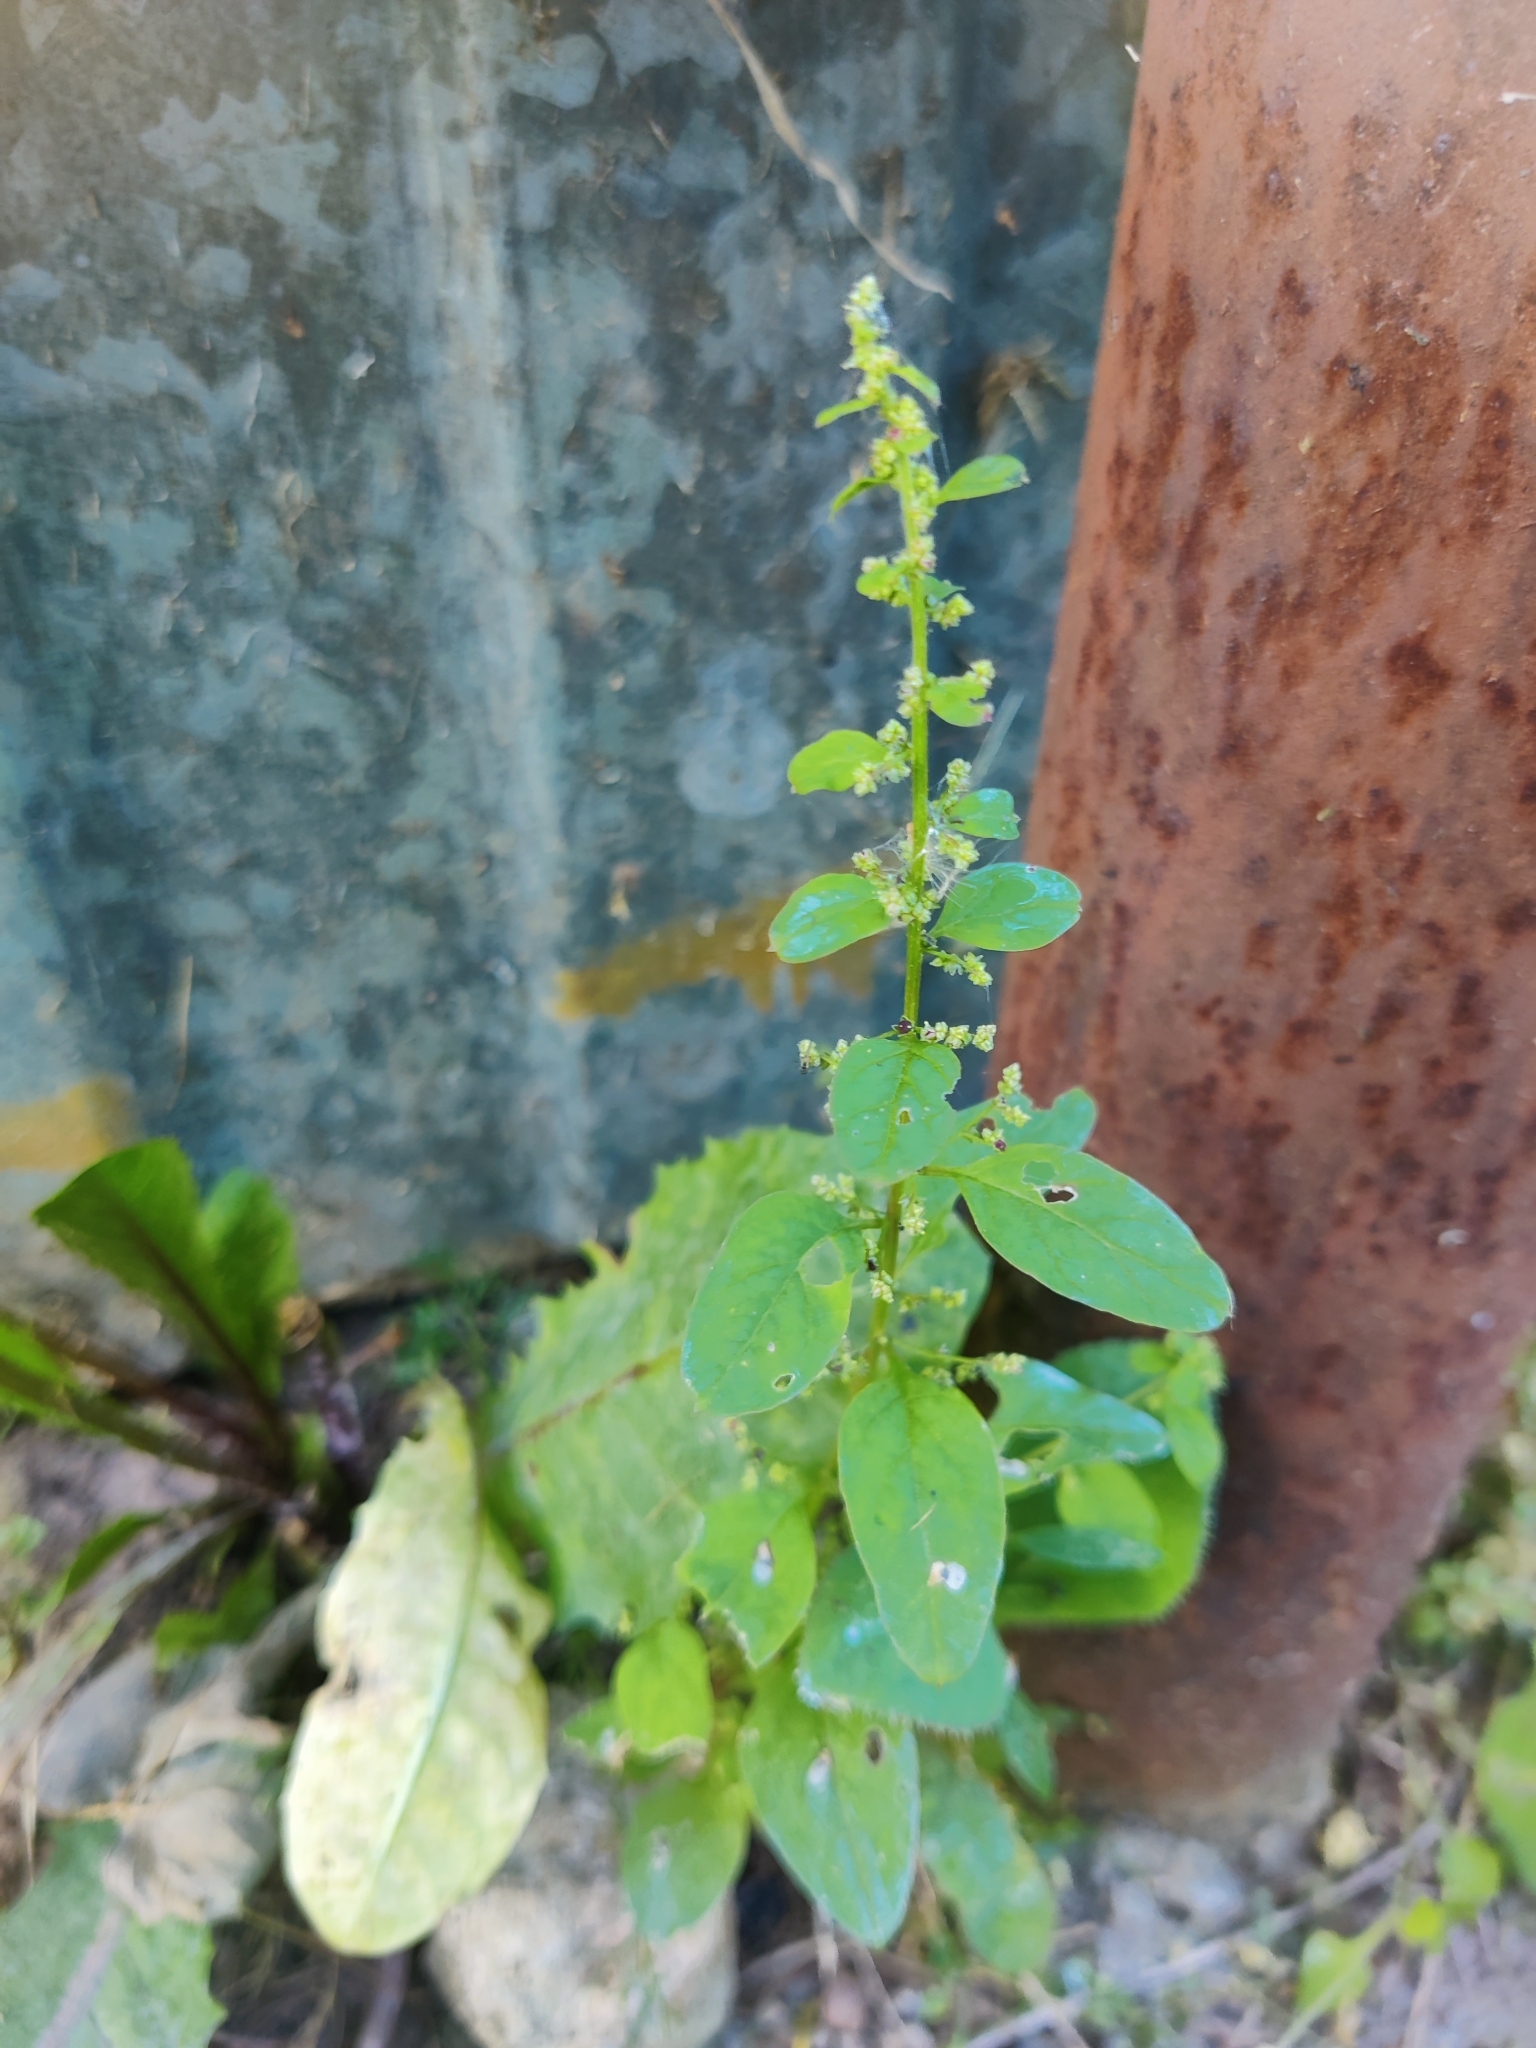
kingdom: Plantae
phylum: Tracheophyta
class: Magnoliopsida
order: Caryophyllales
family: Amaranthaceae
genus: Lipandra
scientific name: Lipandra polysperma
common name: Many-seed goosefoot
